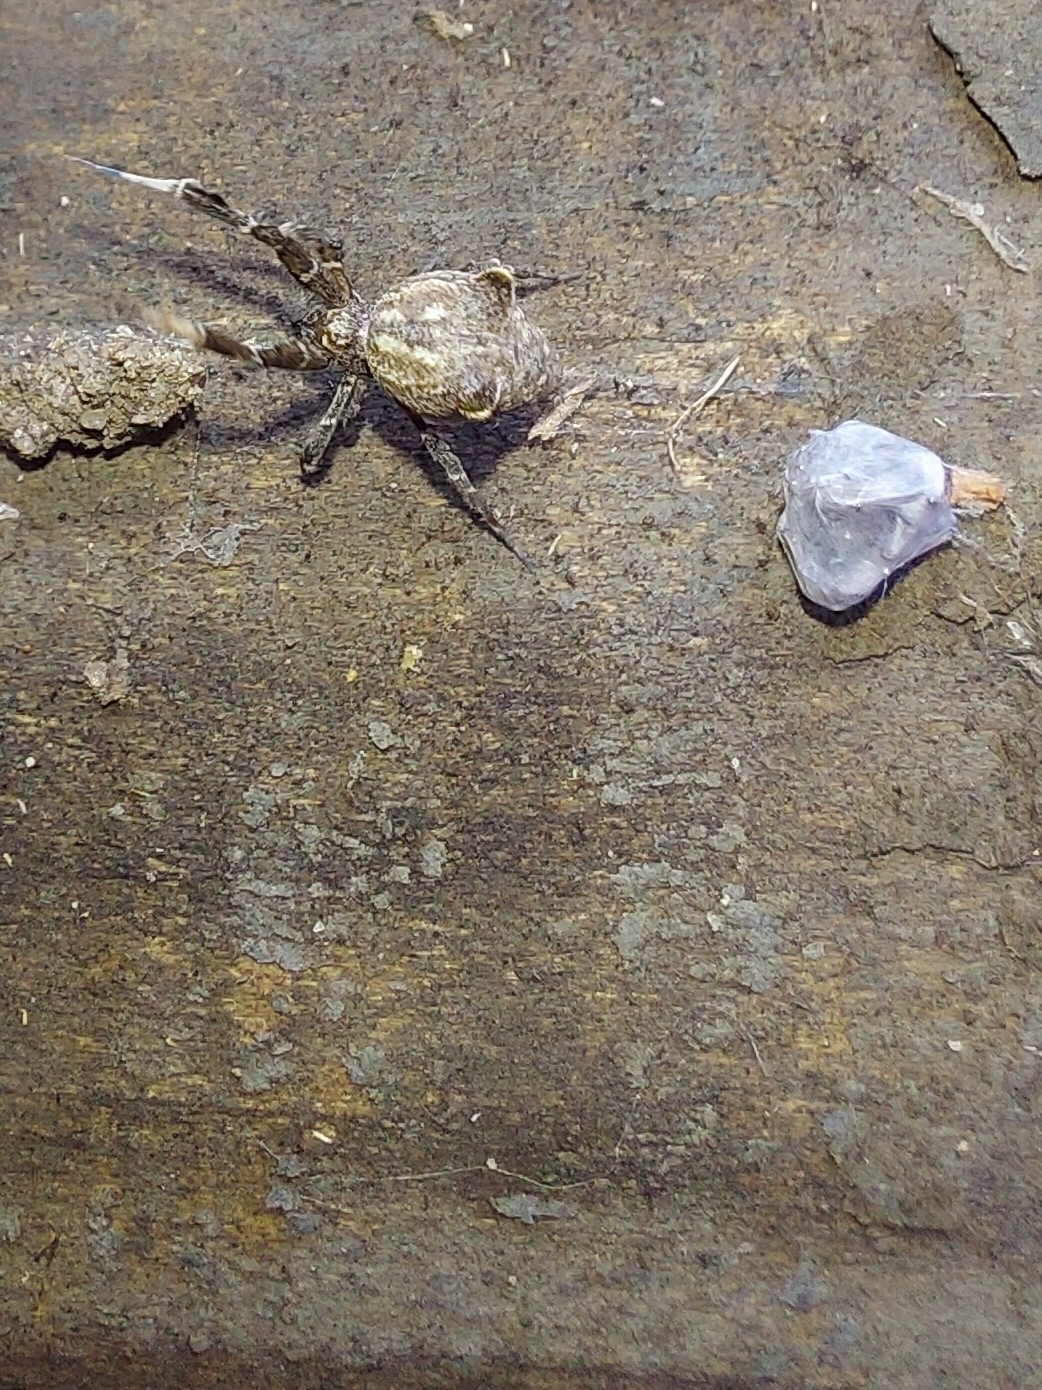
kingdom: Animalia
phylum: Arthropoda
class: Arachnida
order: Araneae
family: Uloboridae
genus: Uloborus
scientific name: Uloborus plumipes
